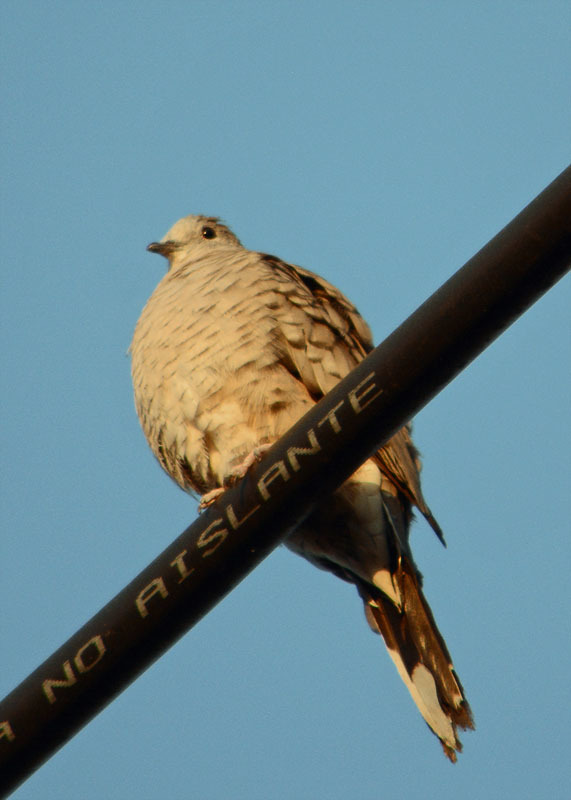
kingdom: Animalia
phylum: Chordata
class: Aves
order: Columbiformes
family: Columbidae
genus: Columbina
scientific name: Columbina inca
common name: Inca dove
